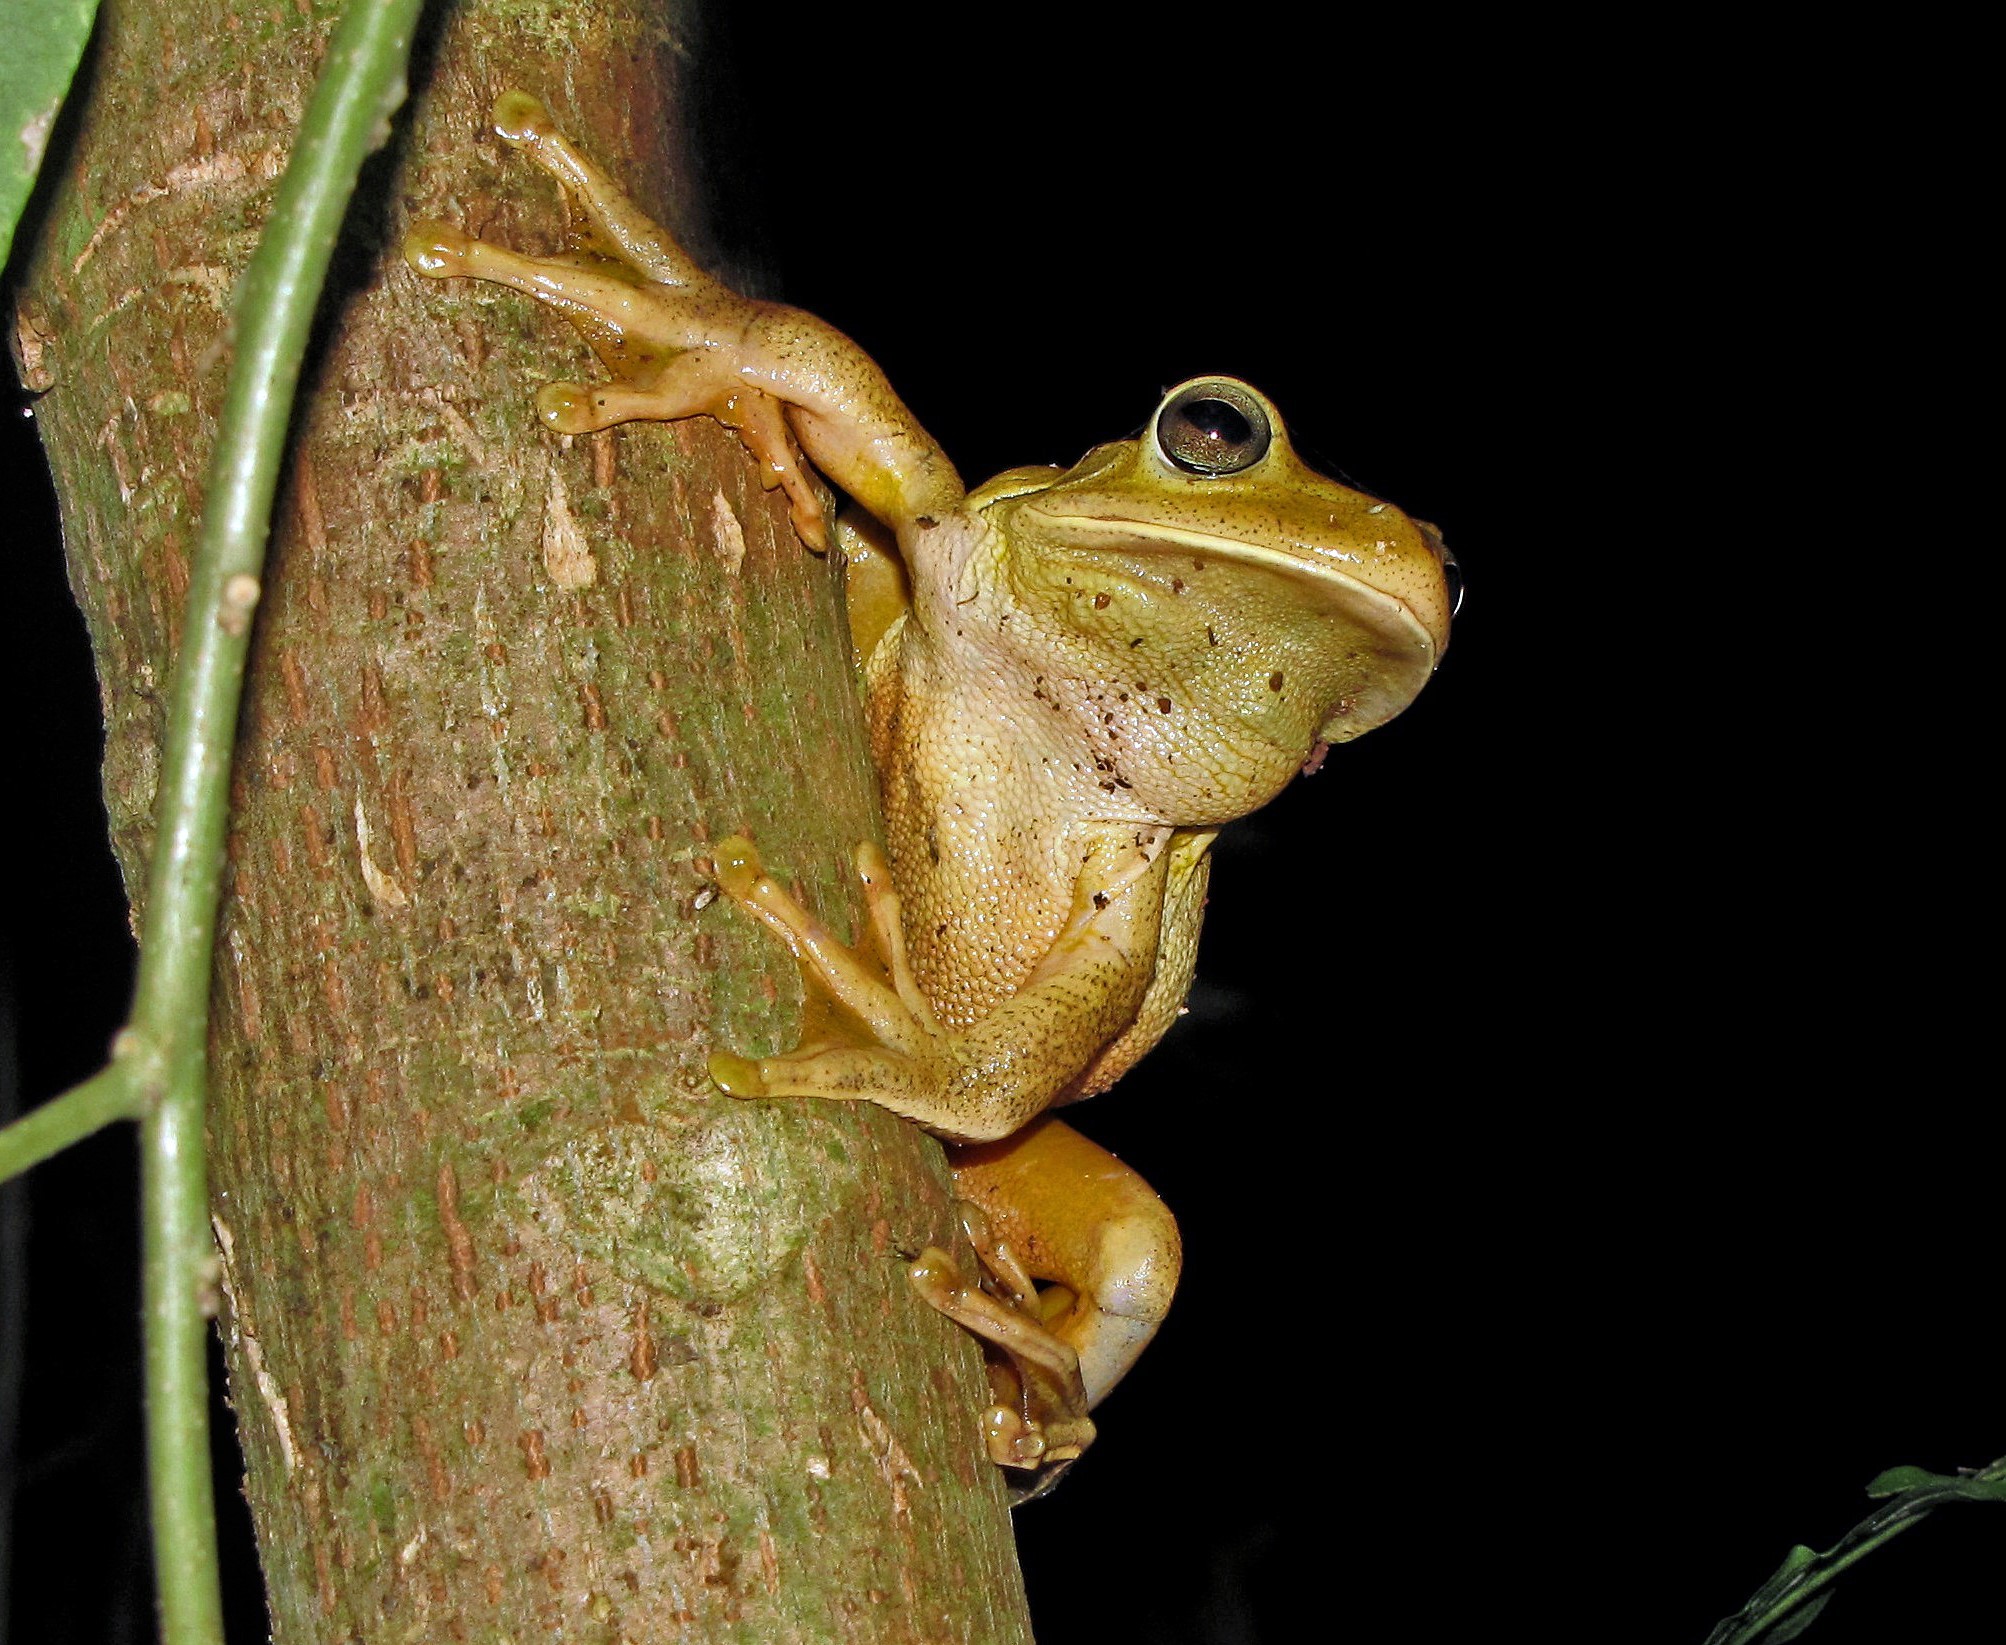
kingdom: Animalia
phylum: Chordata
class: Amphibia
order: Anura
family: Hylidae
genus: Boana
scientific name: Boana faber
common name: Blacksmith tree frog
